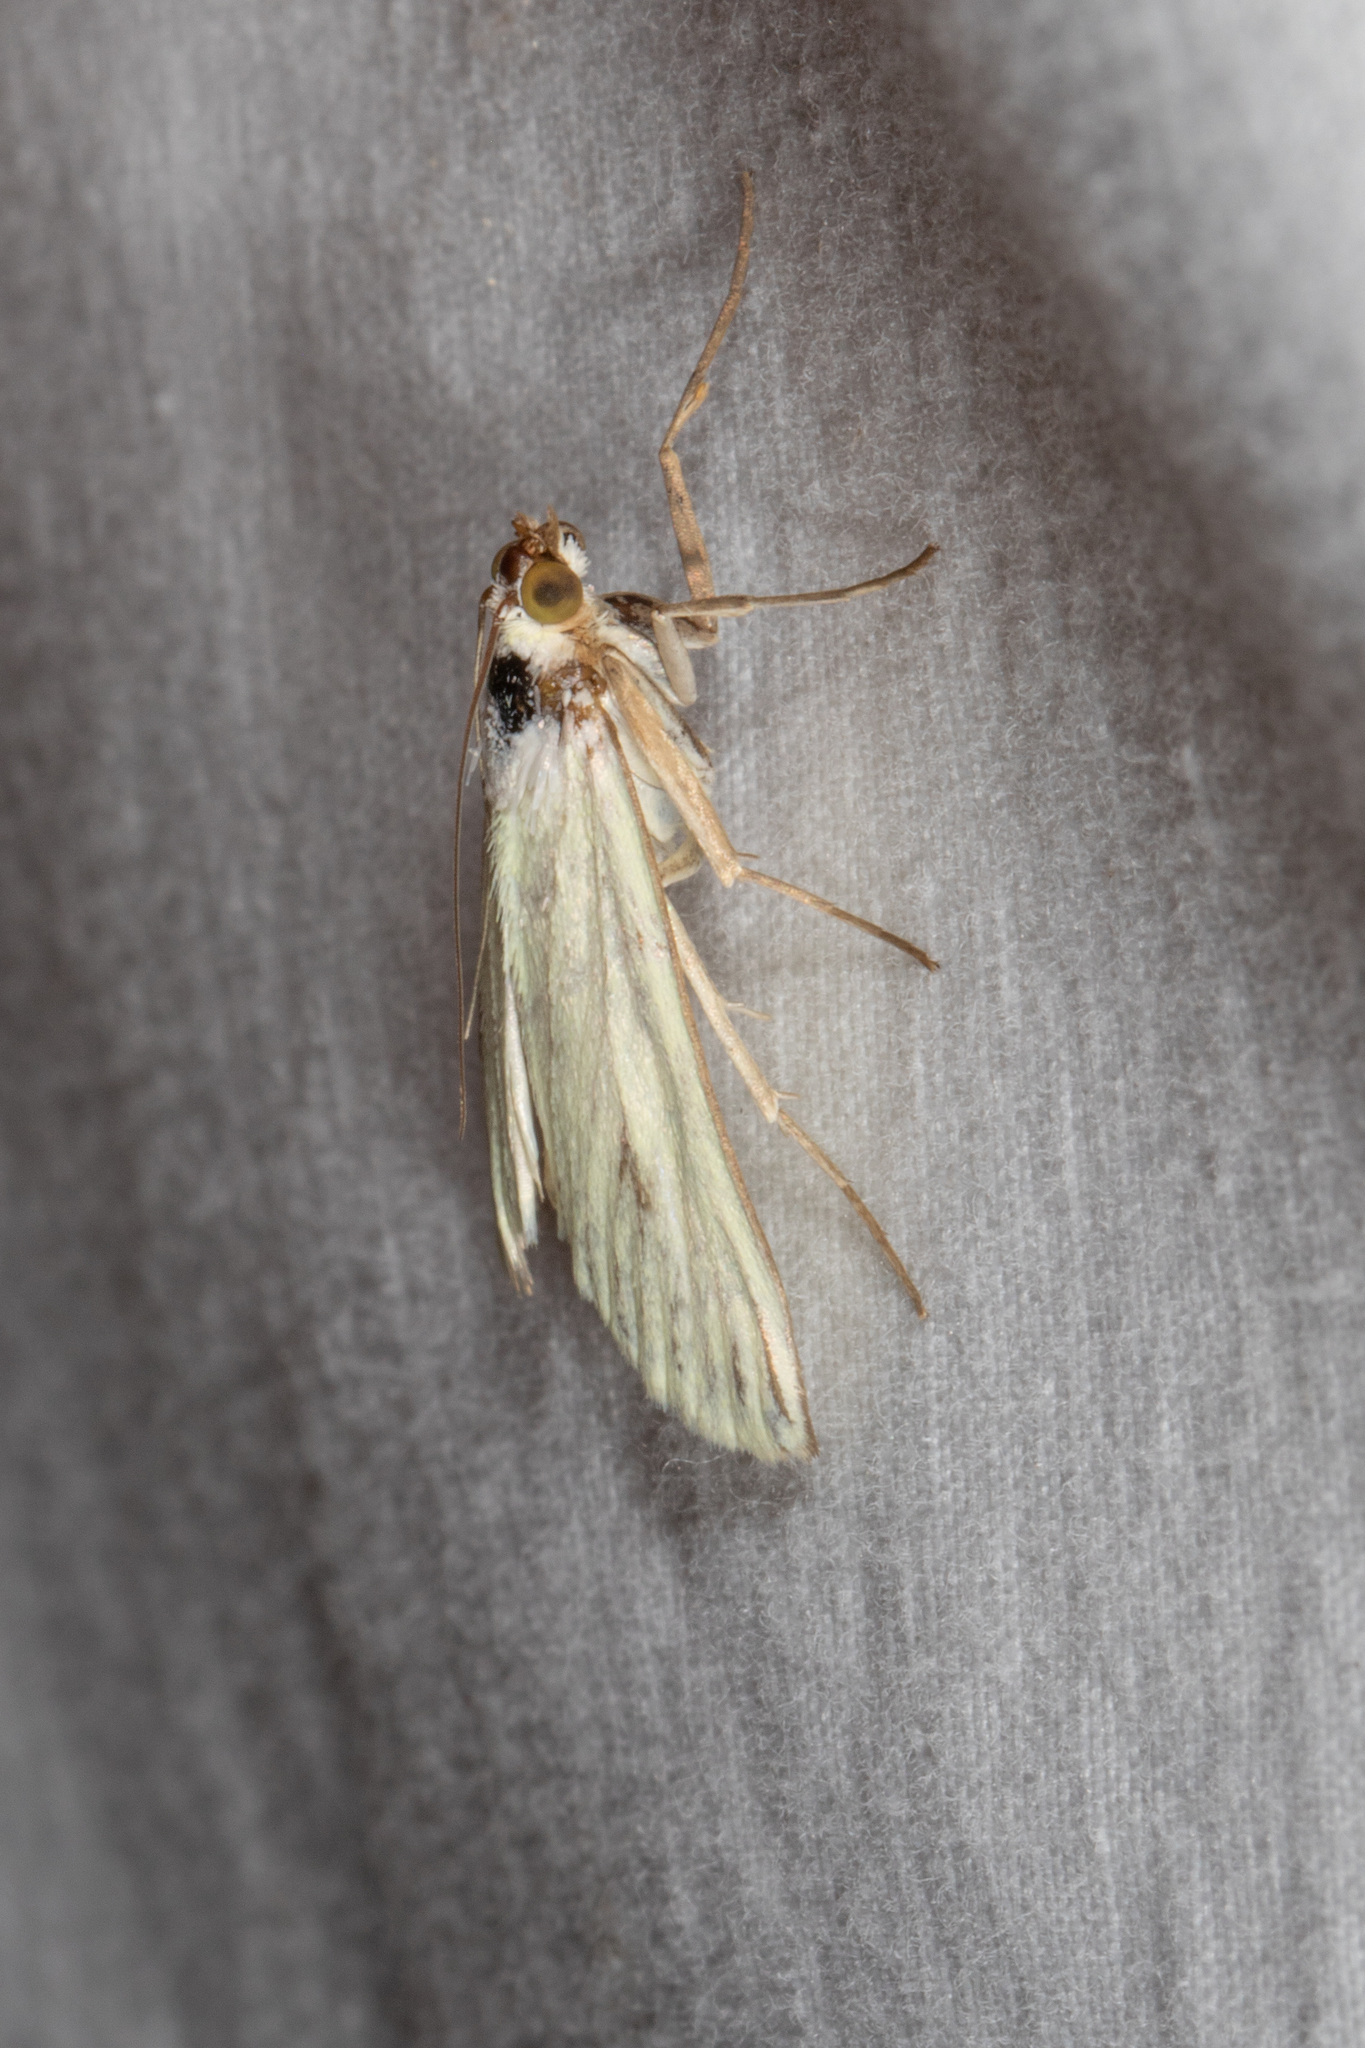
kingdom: Animalia
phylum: Arthropoda
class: Insecta
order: Lepidoptera
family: Crambidae
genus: Sitochroa
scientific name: Sitochroa palealis
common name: Greenish-yellow sitochroa moth
